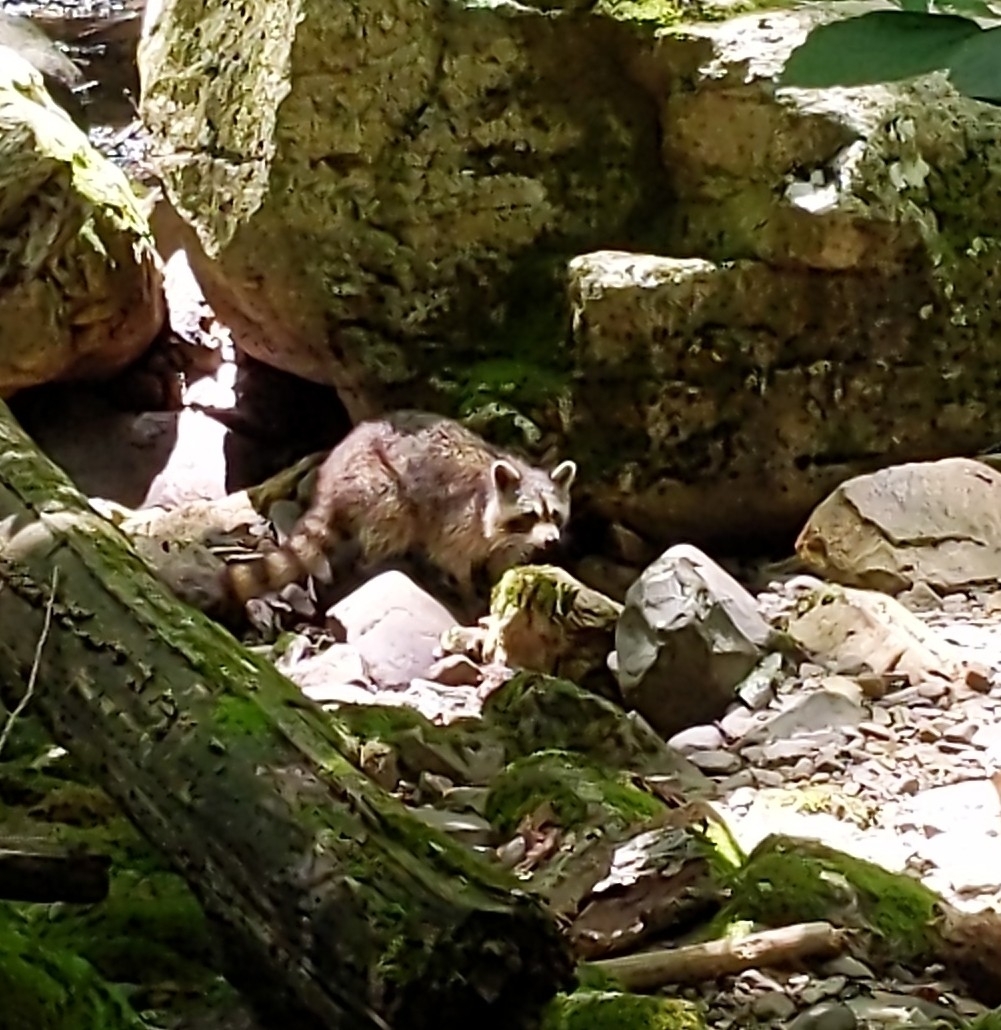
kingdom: Animalia
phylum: Chordata
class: Mammalia
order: Carnivora
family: Procyonidae
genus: Procyon
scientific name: Procyon lotor
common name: Raccoon
